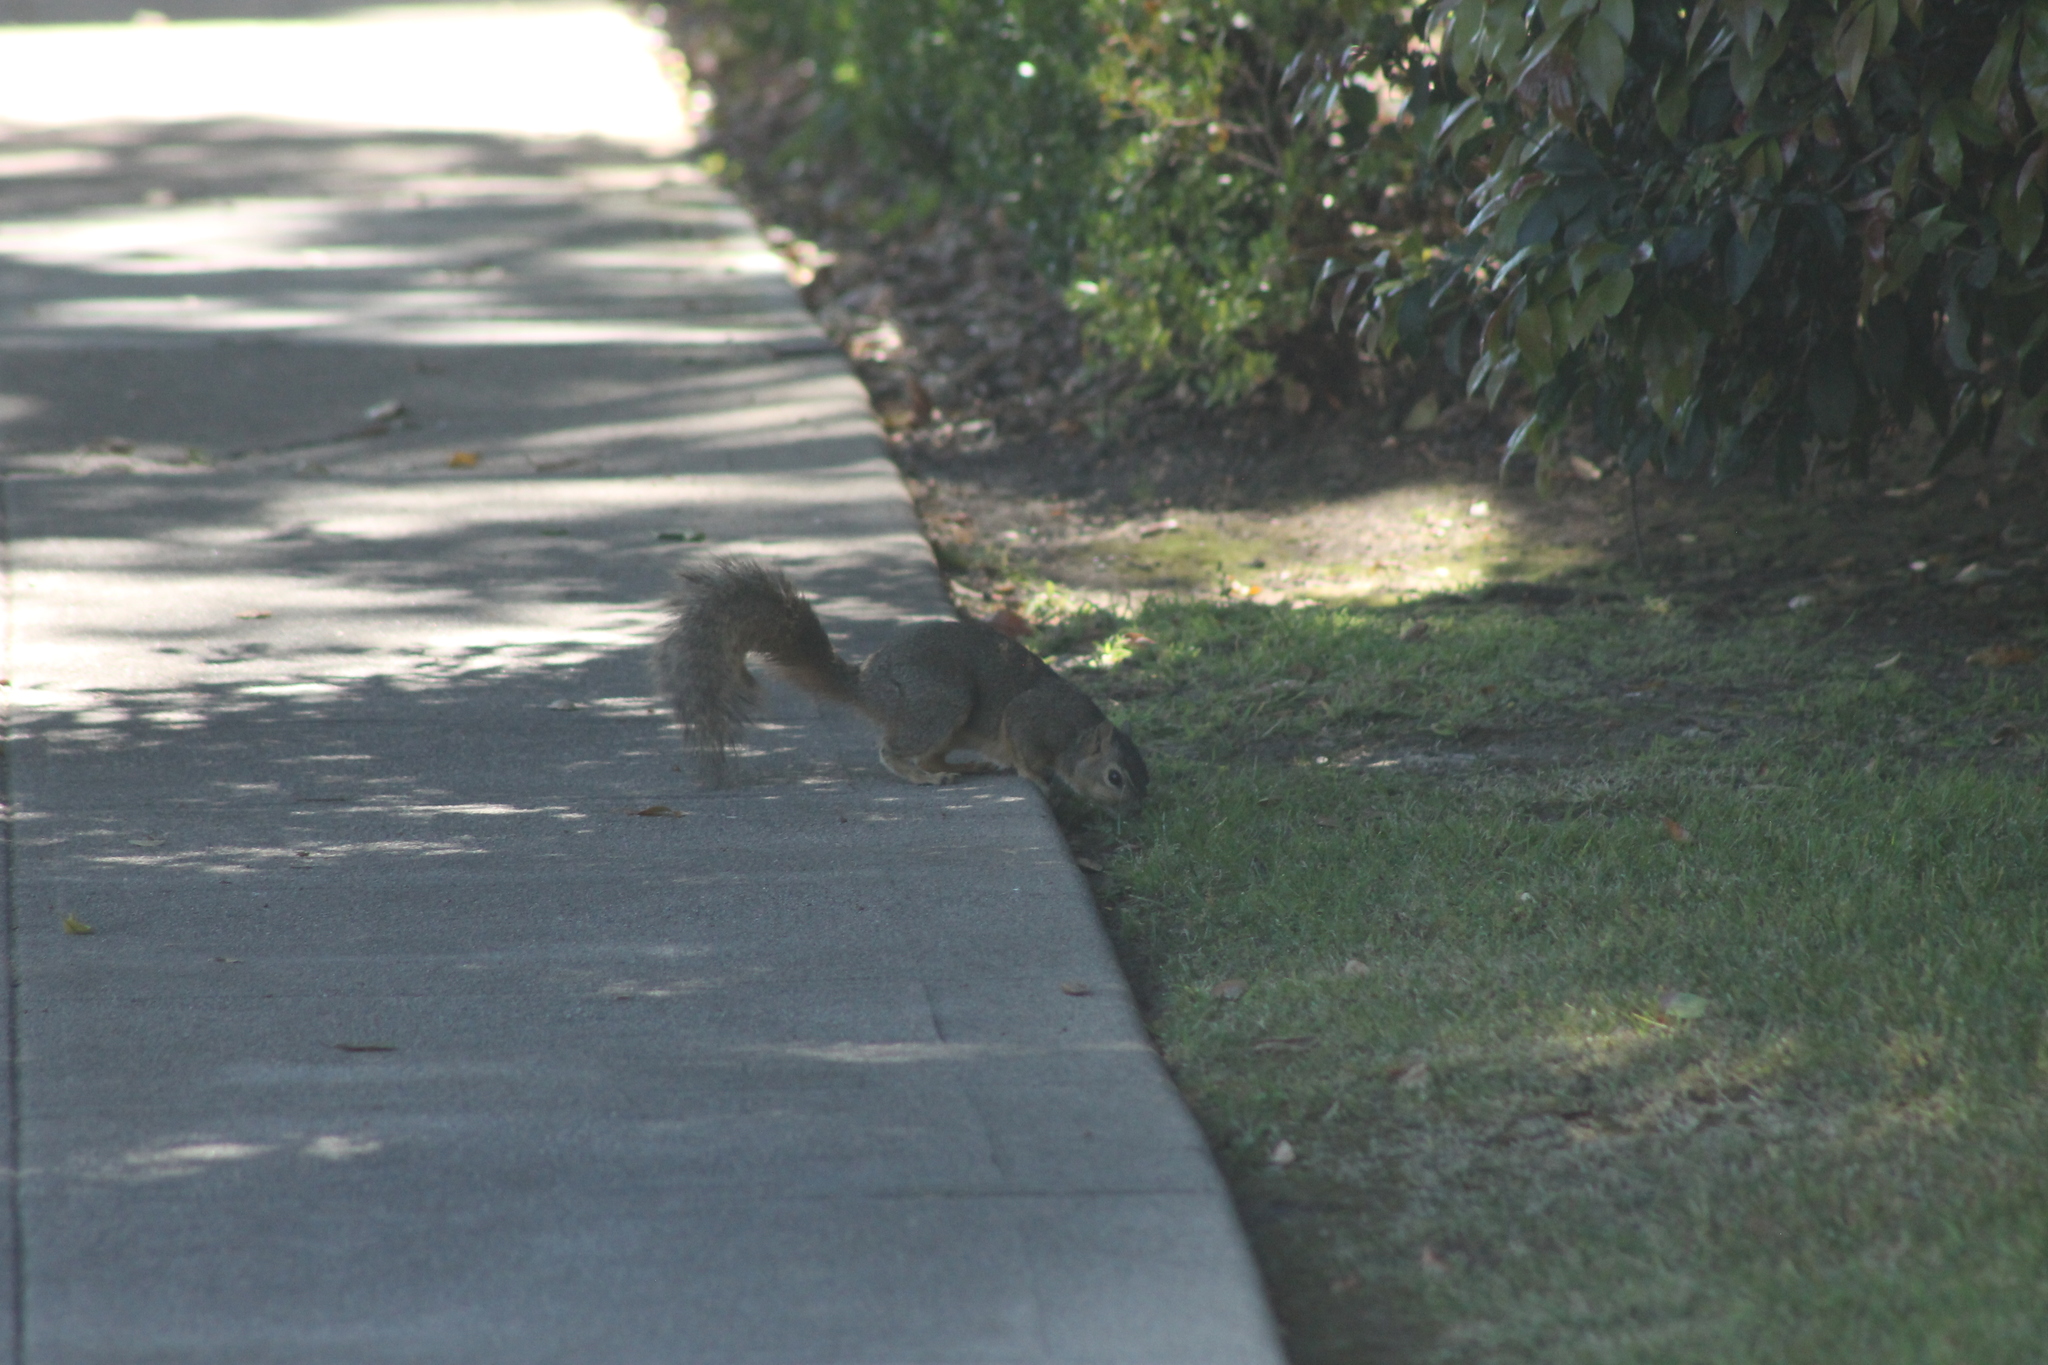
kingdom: Animalia
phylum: Chordata
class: Mammalia
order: Rodentia
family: Sciuridae
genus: Sciurus
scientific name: Sciurus niger
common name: Fox squirrel
